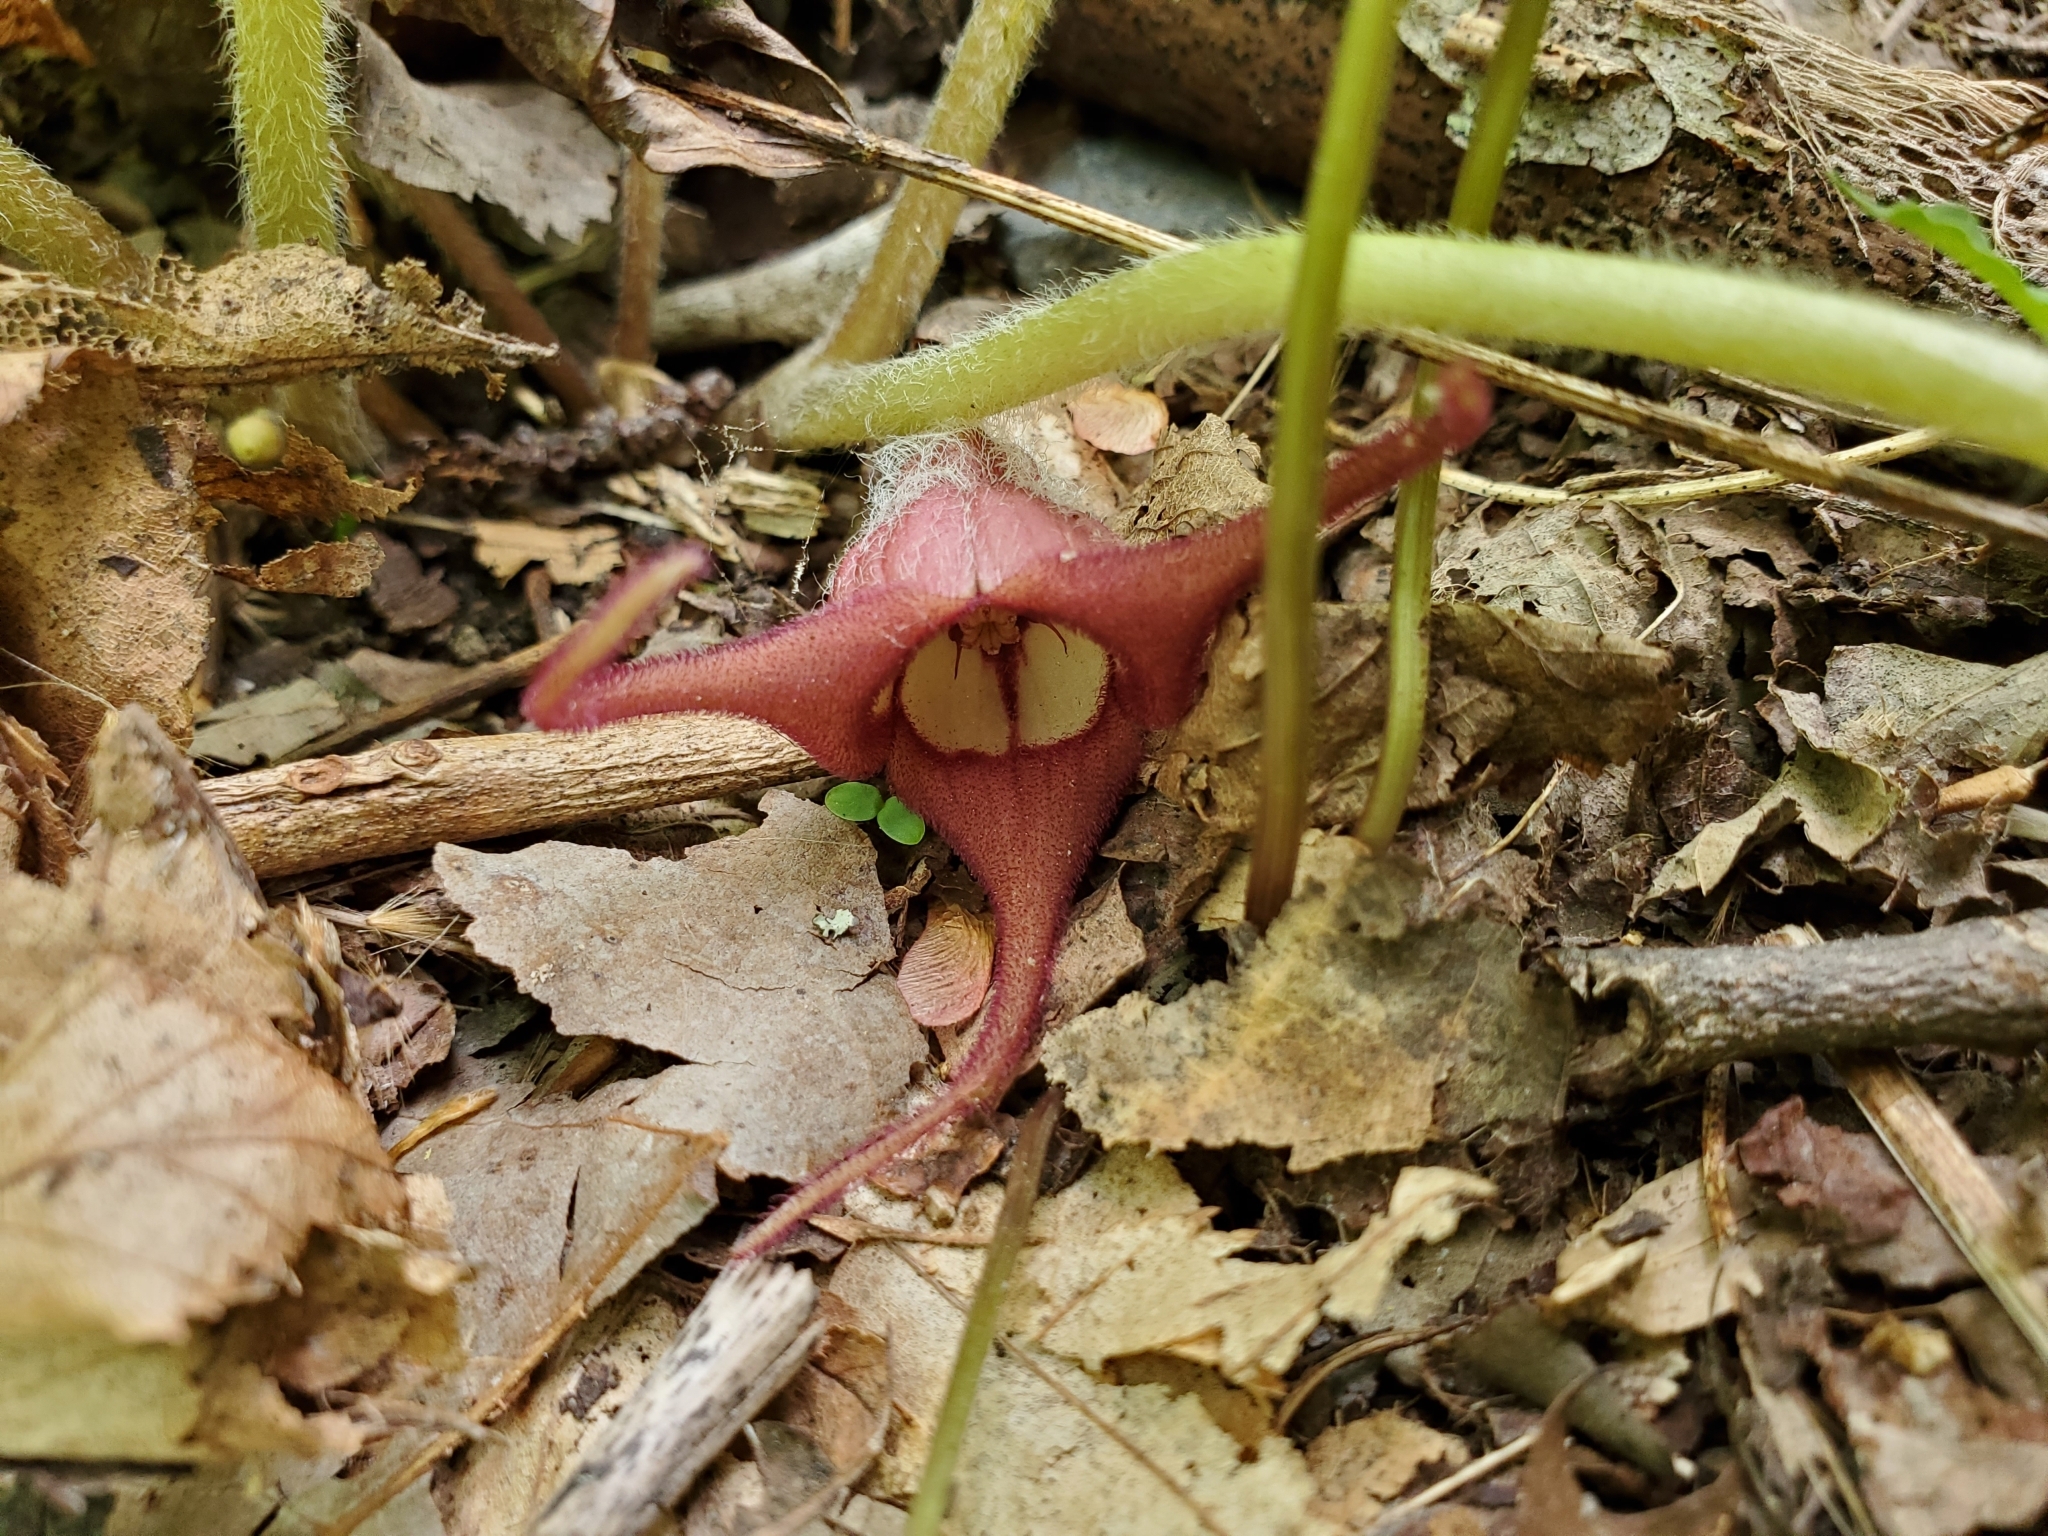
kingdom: Plantae
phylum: Tracheophyta
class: Magnoliopsida
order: Piperales
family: Aristolochiaceae
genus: Asarum
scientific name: Asarum canadense
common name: Wild ginger
